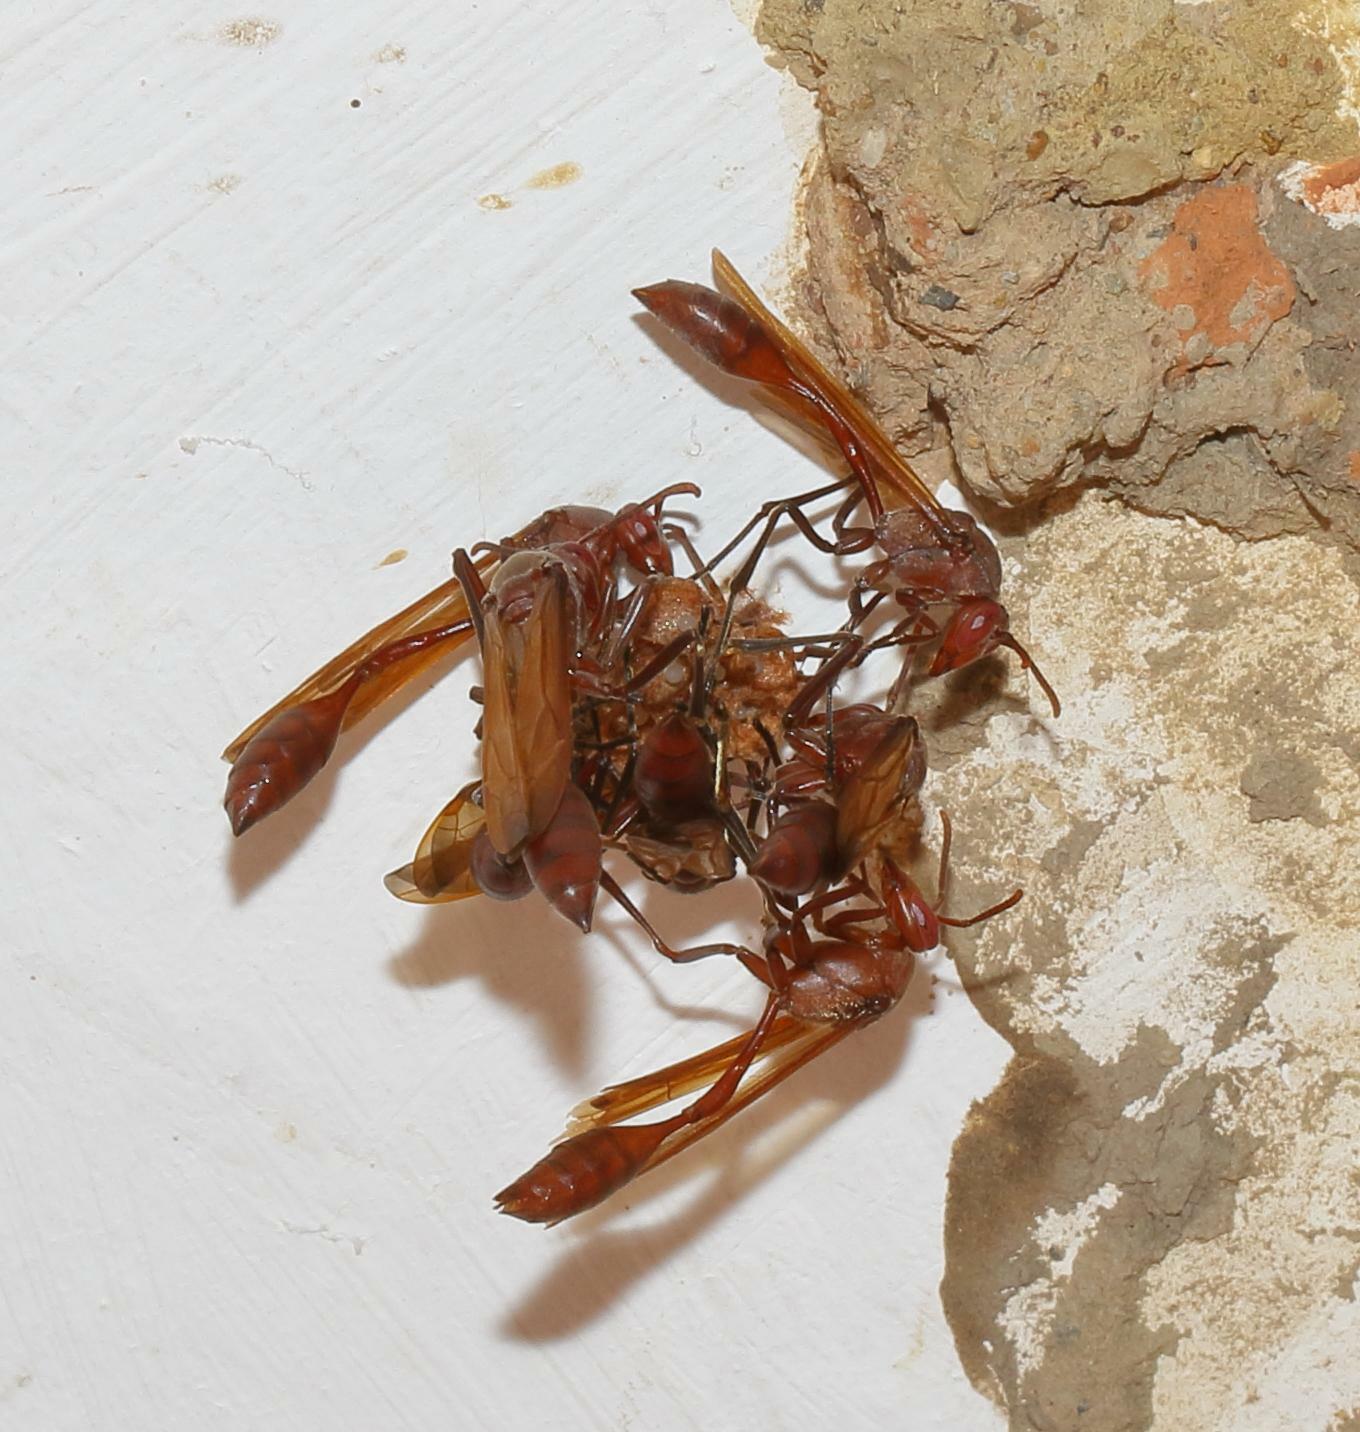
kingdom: Animalia
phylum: Arthropoda
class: Insecta
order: Hymenoptera
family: Eumenidae
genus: Belonogaster
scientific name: Belonogaster
